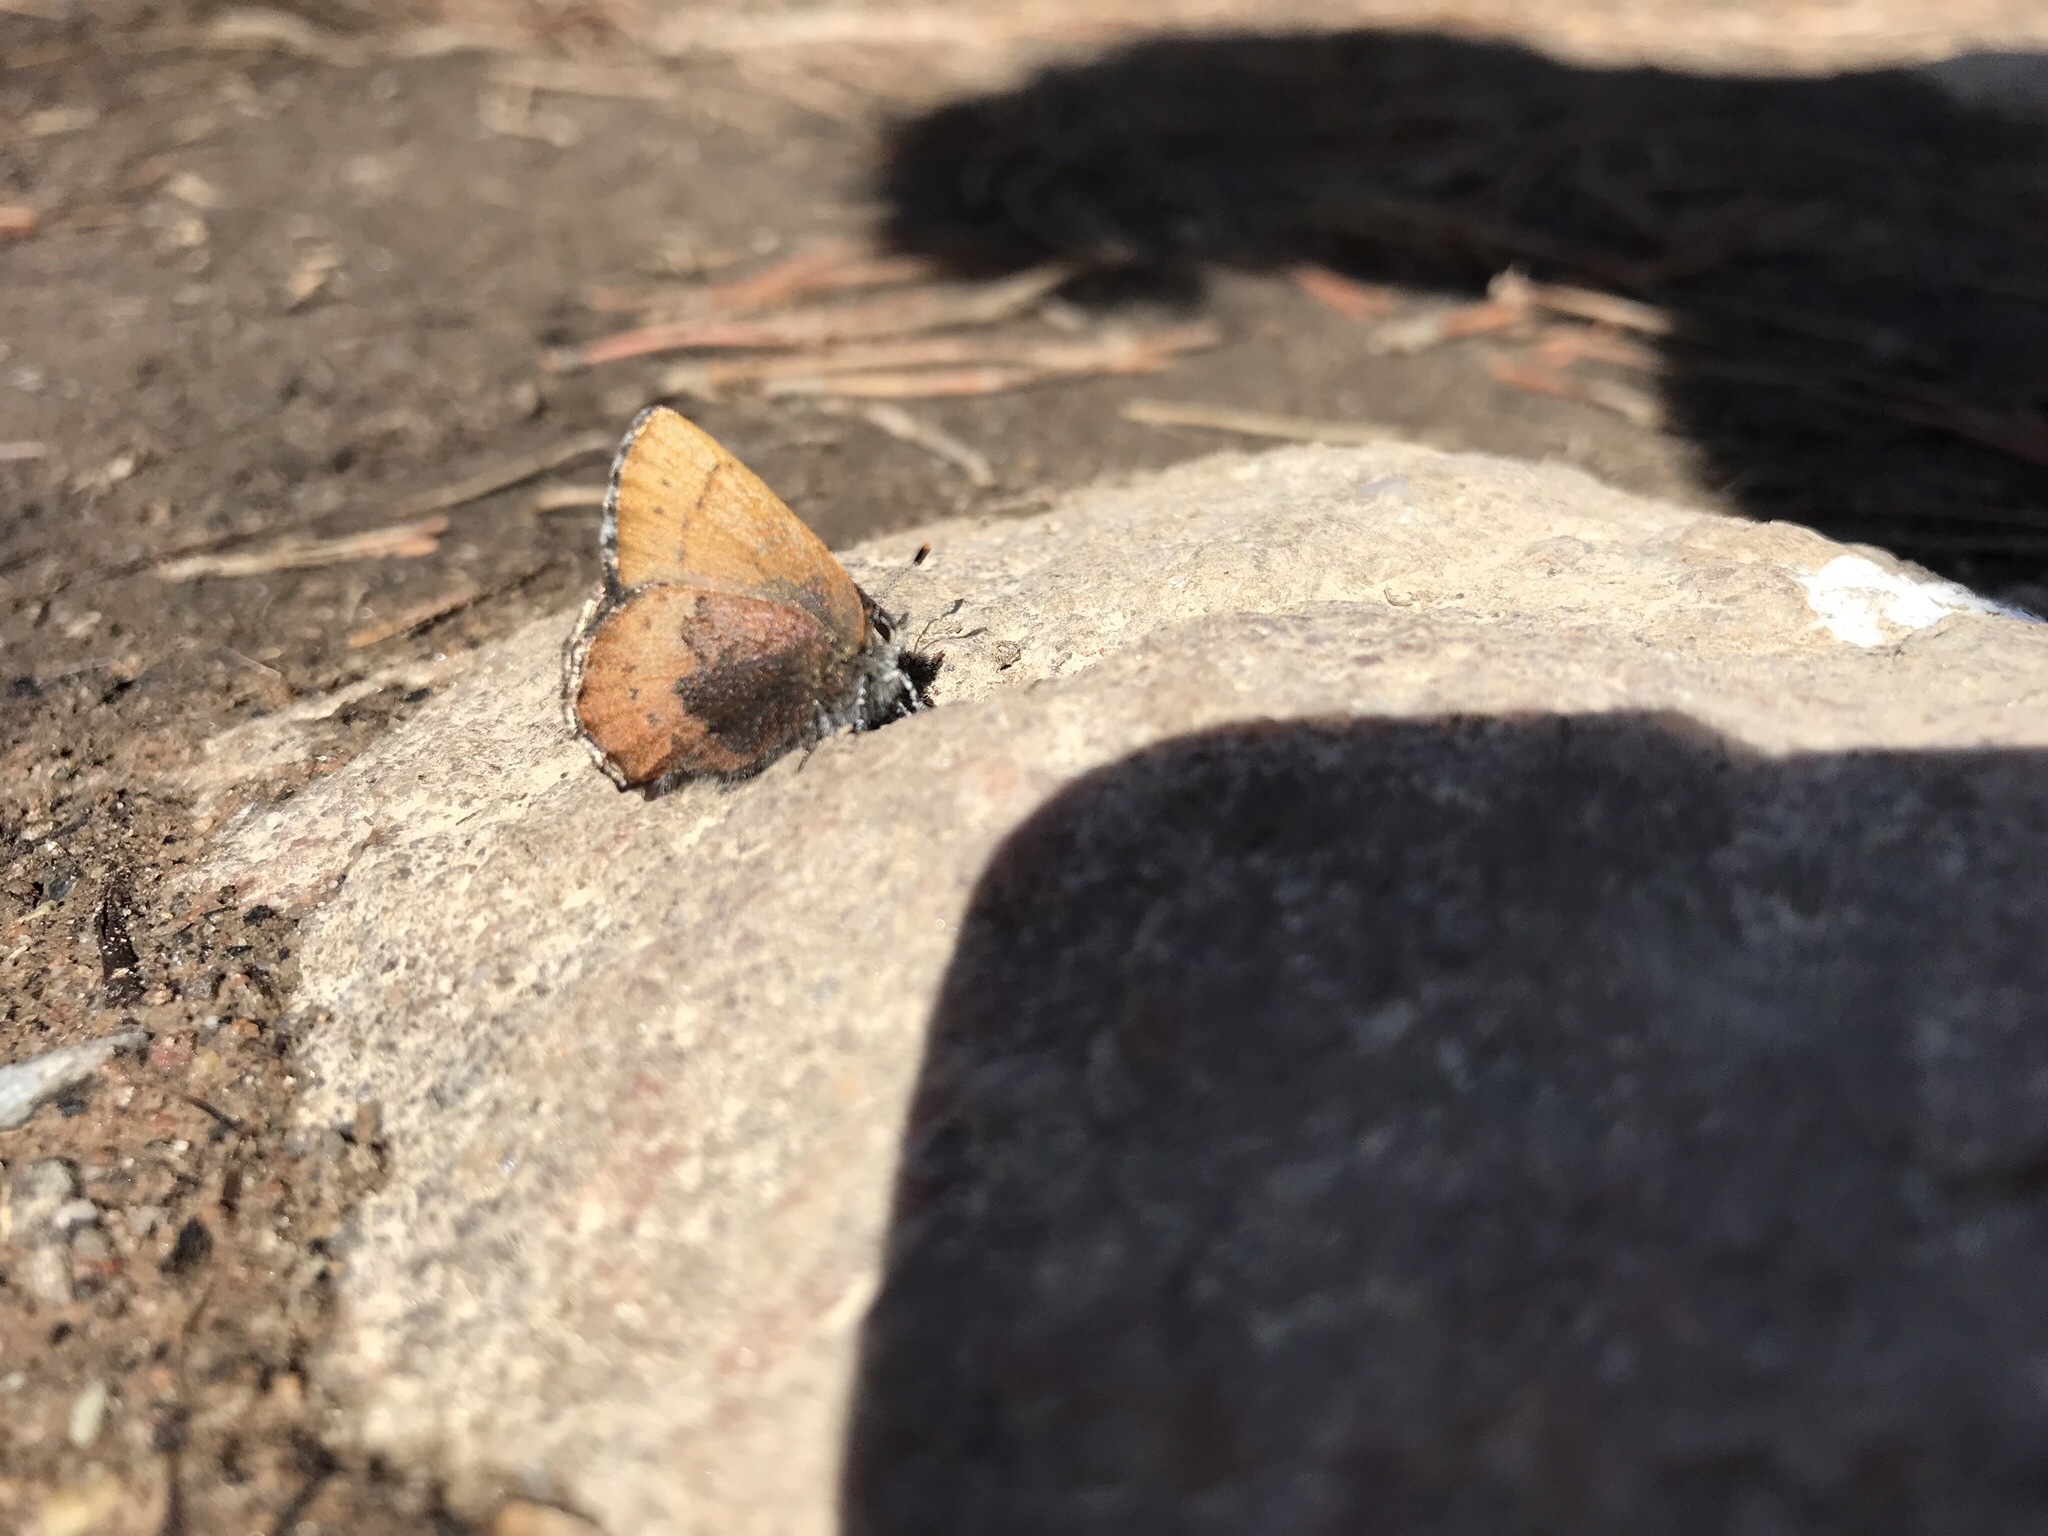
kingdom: Animalia
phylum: Arthropoda
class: Insecta
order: Lepidoptera
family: Lycaenidae
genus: Incisalia
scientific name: Incisalia irioides
